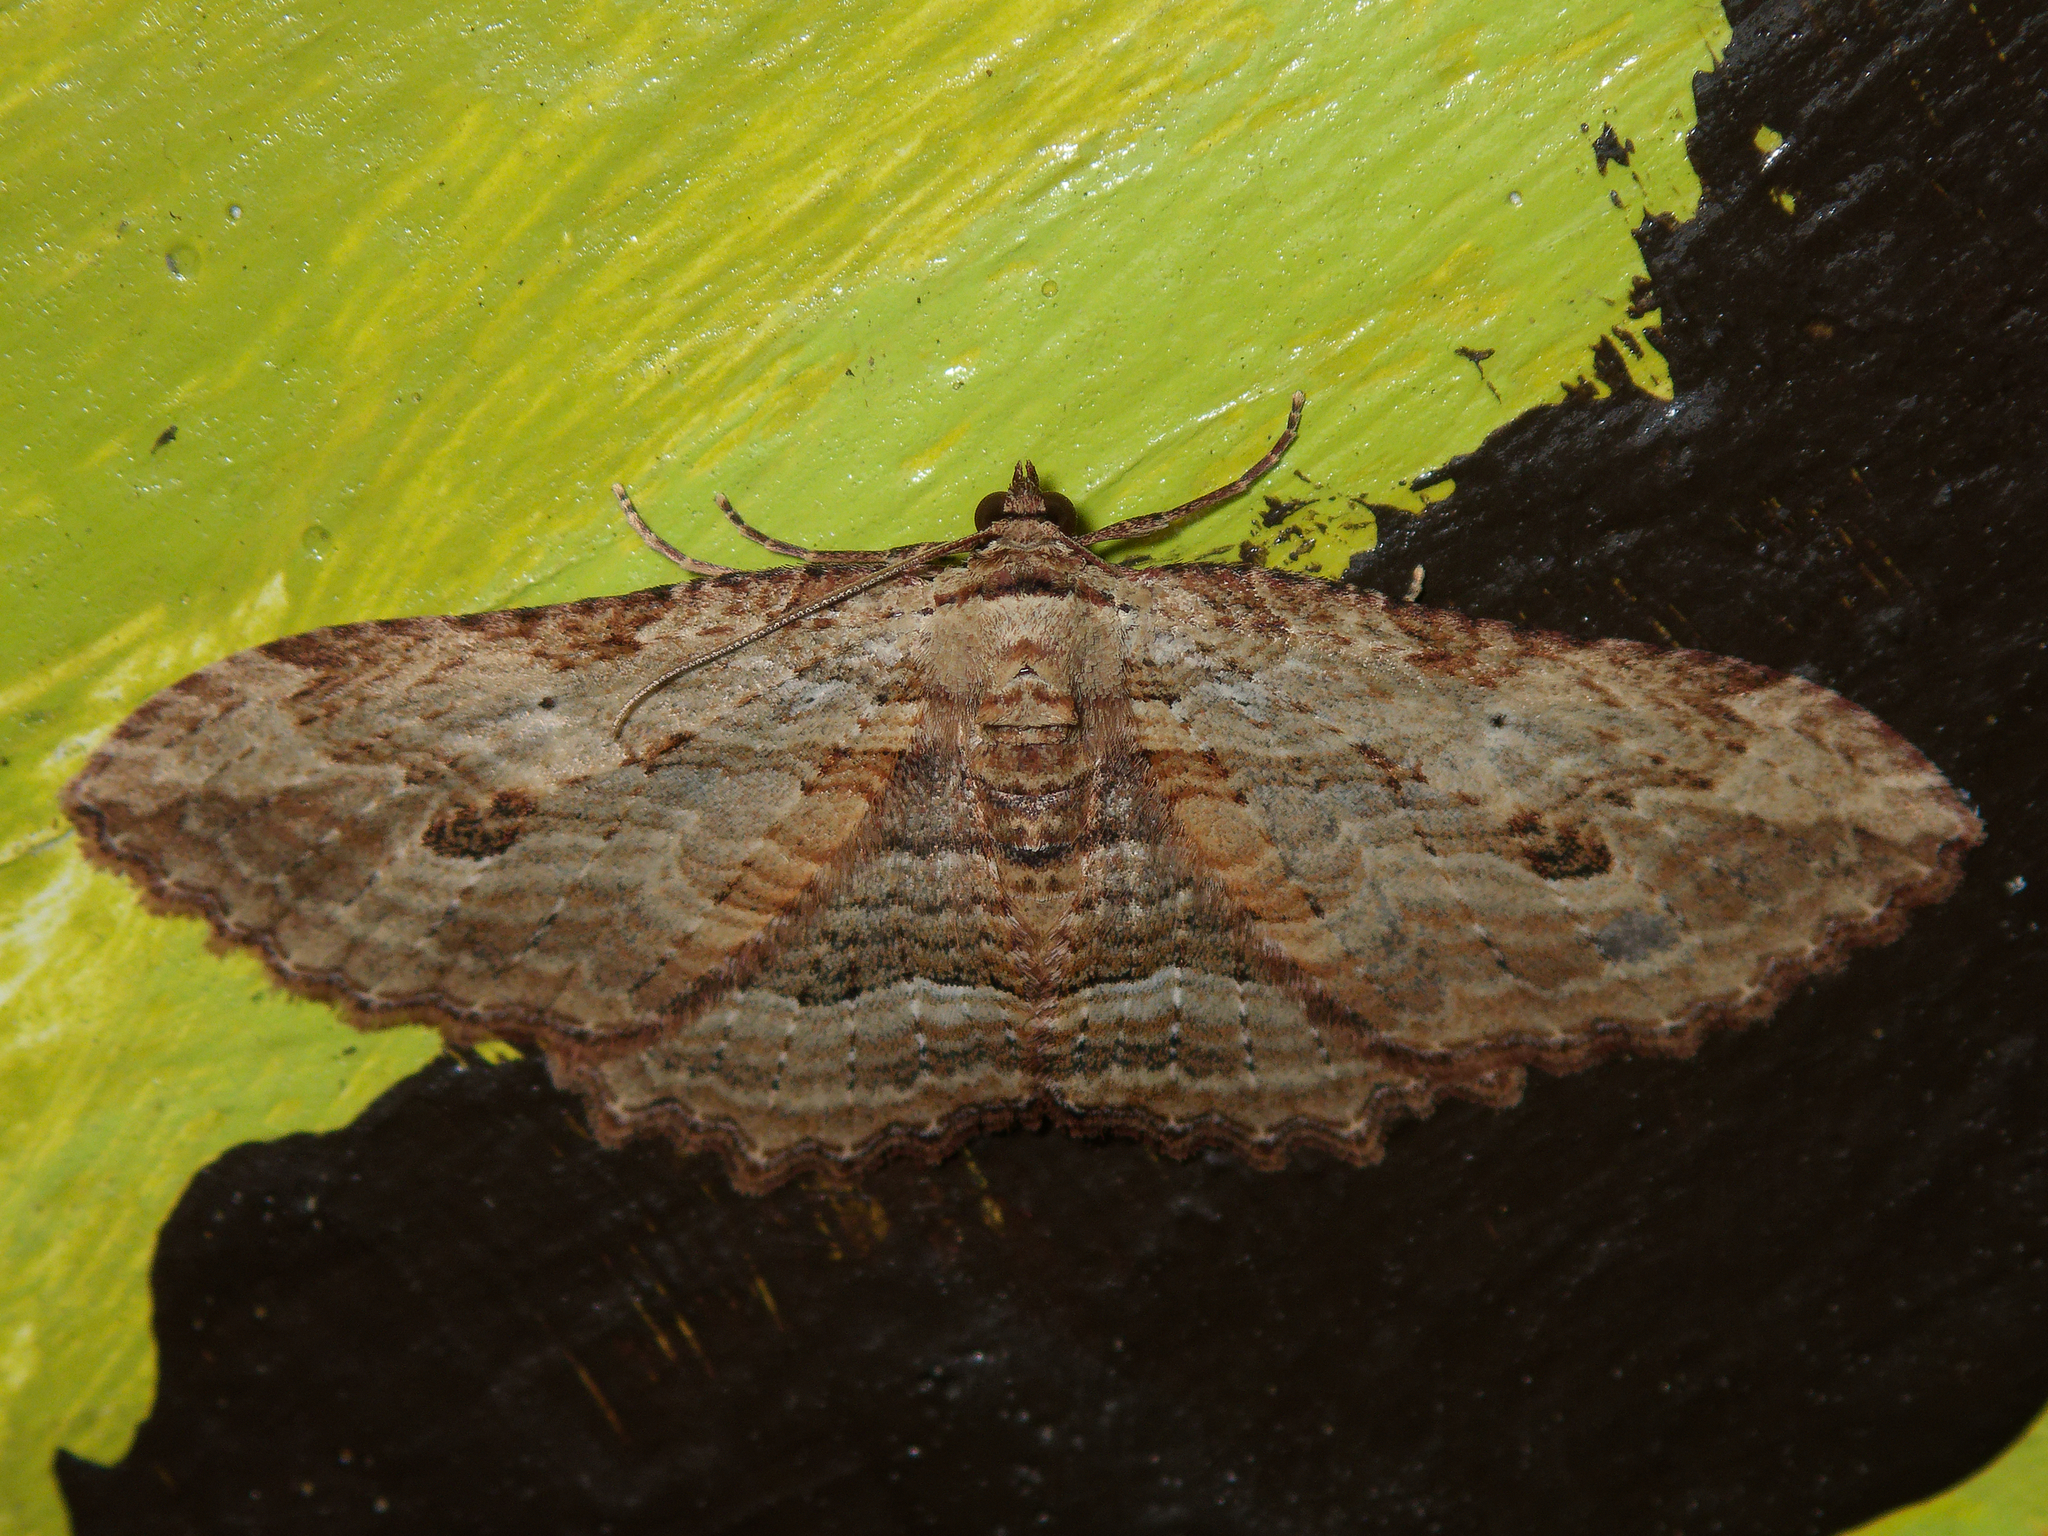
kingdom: Animalia
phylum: Arthropoda
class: Insecta
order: Lepidoptera
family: Geometridae
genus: Austrocidaria
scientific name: Austrocidaria bipartita
